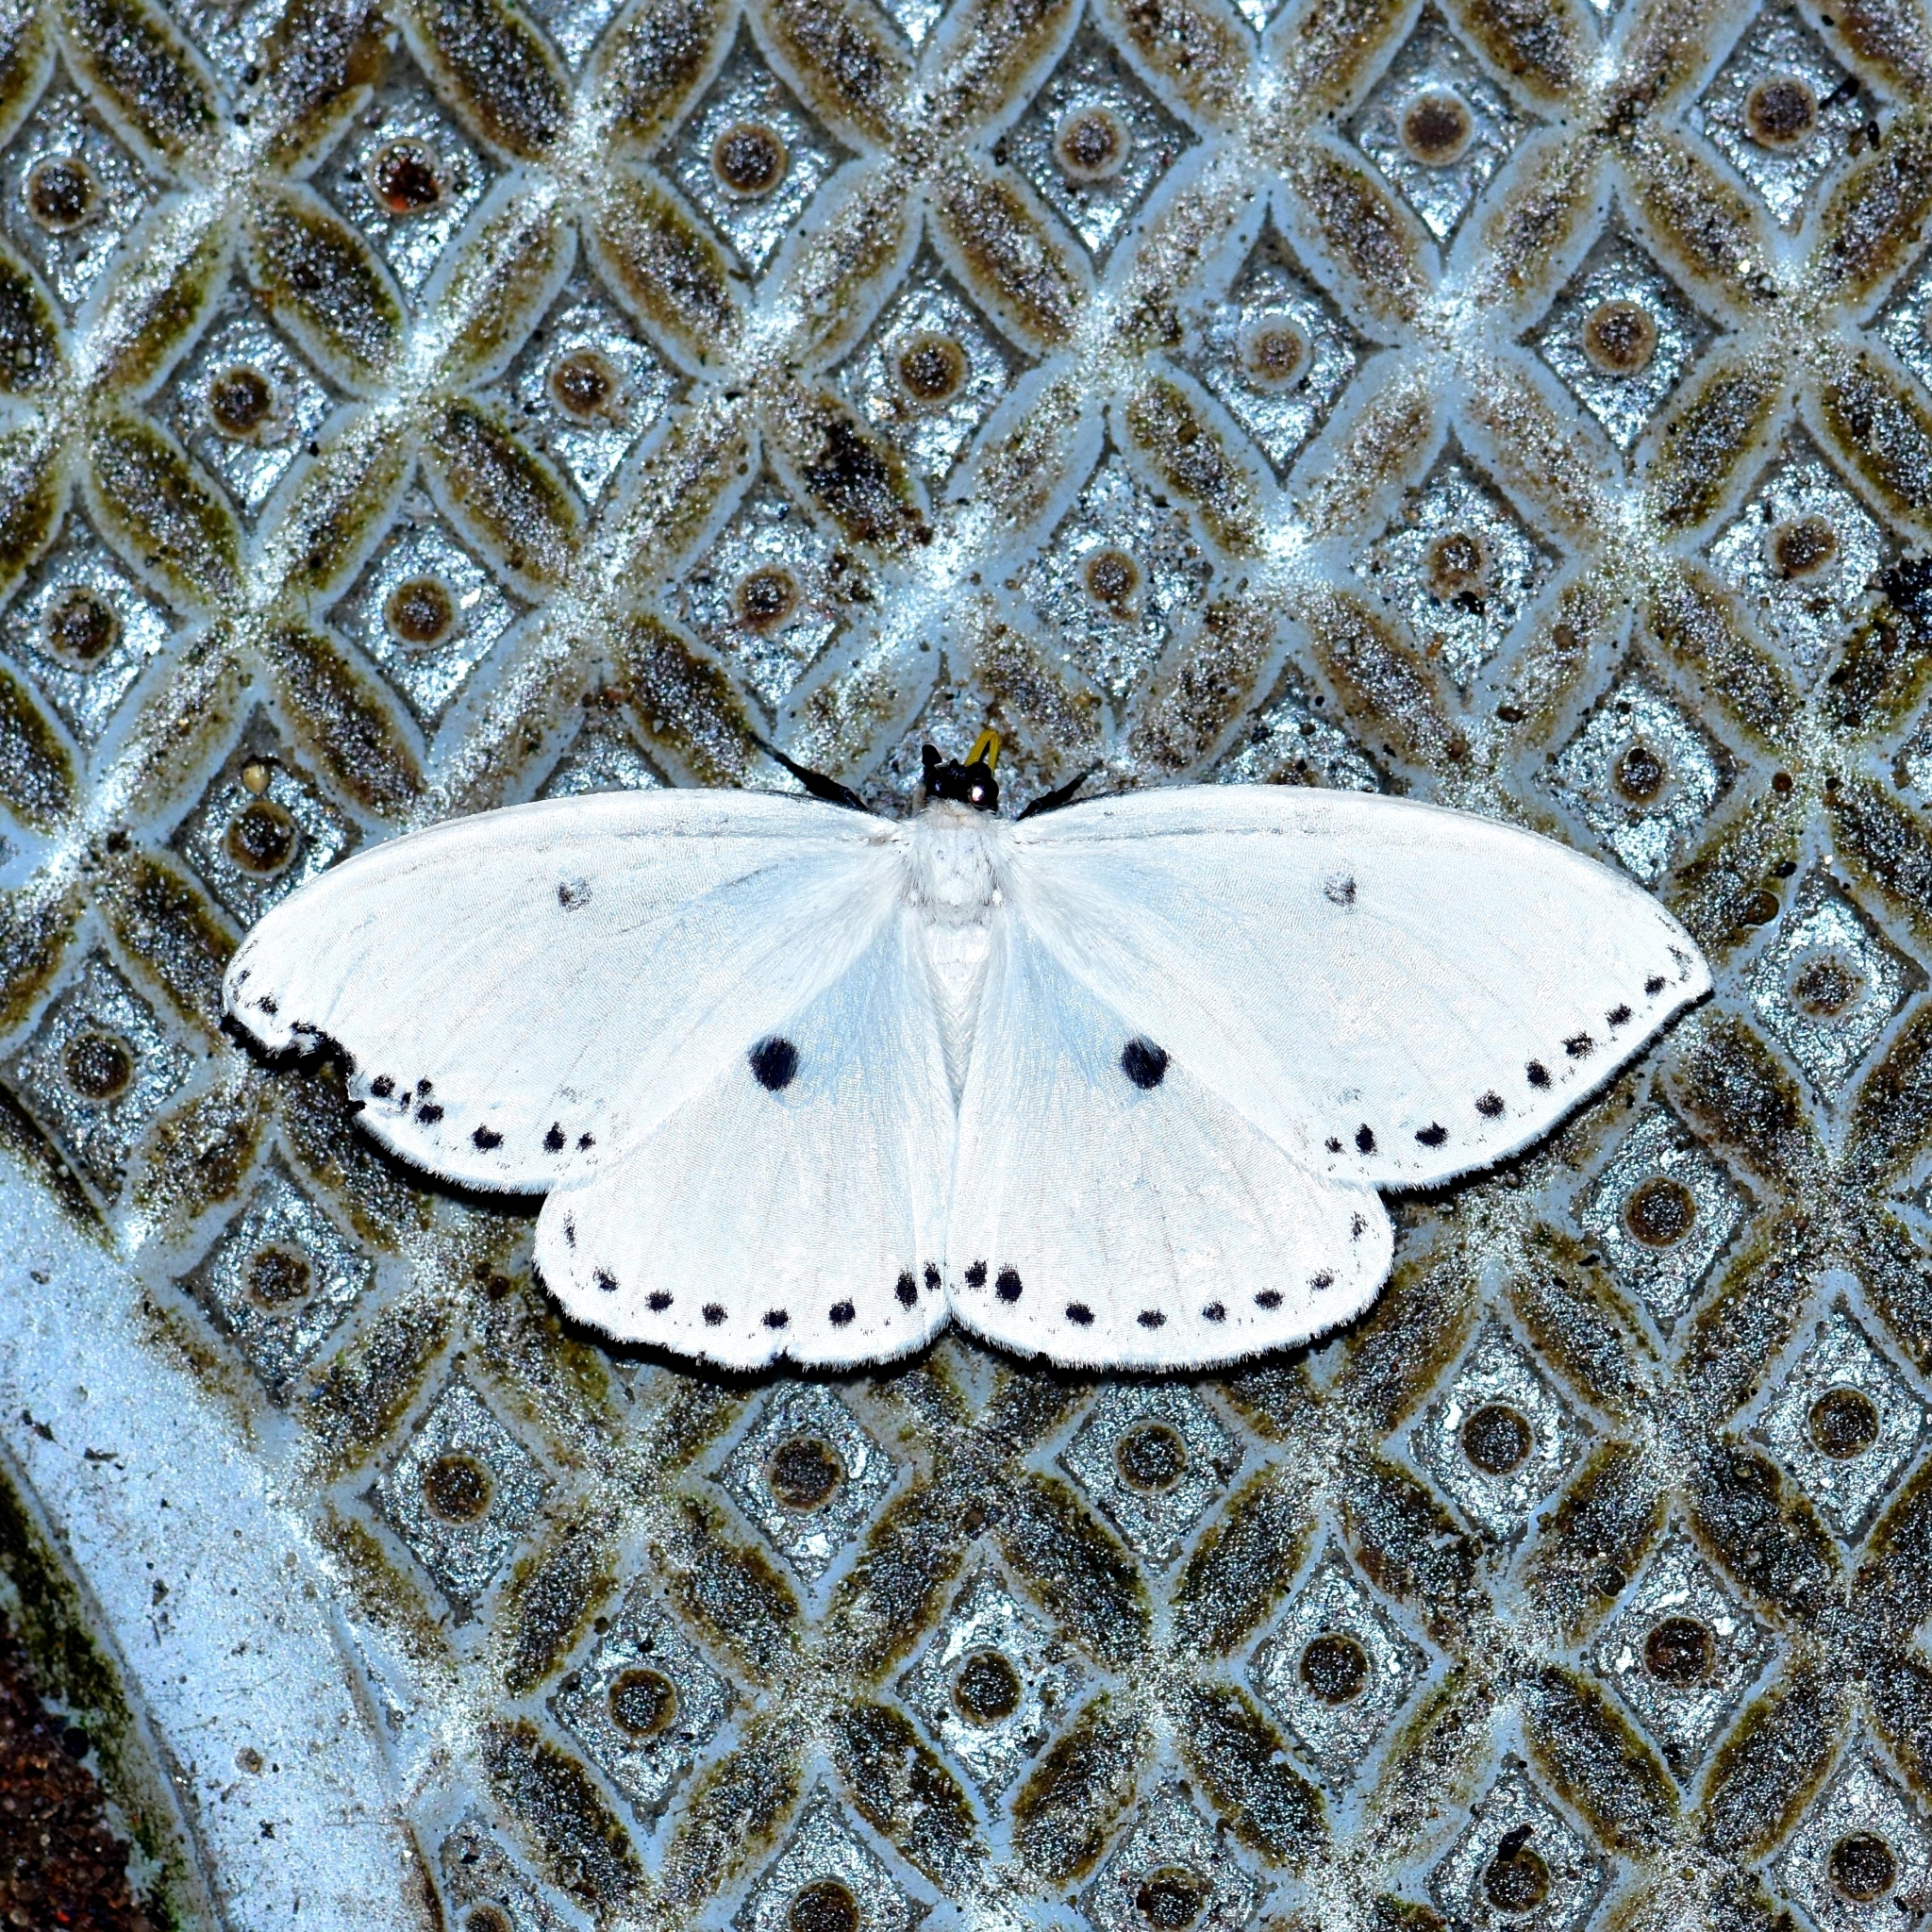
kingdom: Animalia
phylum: Arthropoda
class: Insecta
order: Lepidoptera
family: Drepanidae
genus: Cyclidia
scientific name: Cyclidia dictyaria
